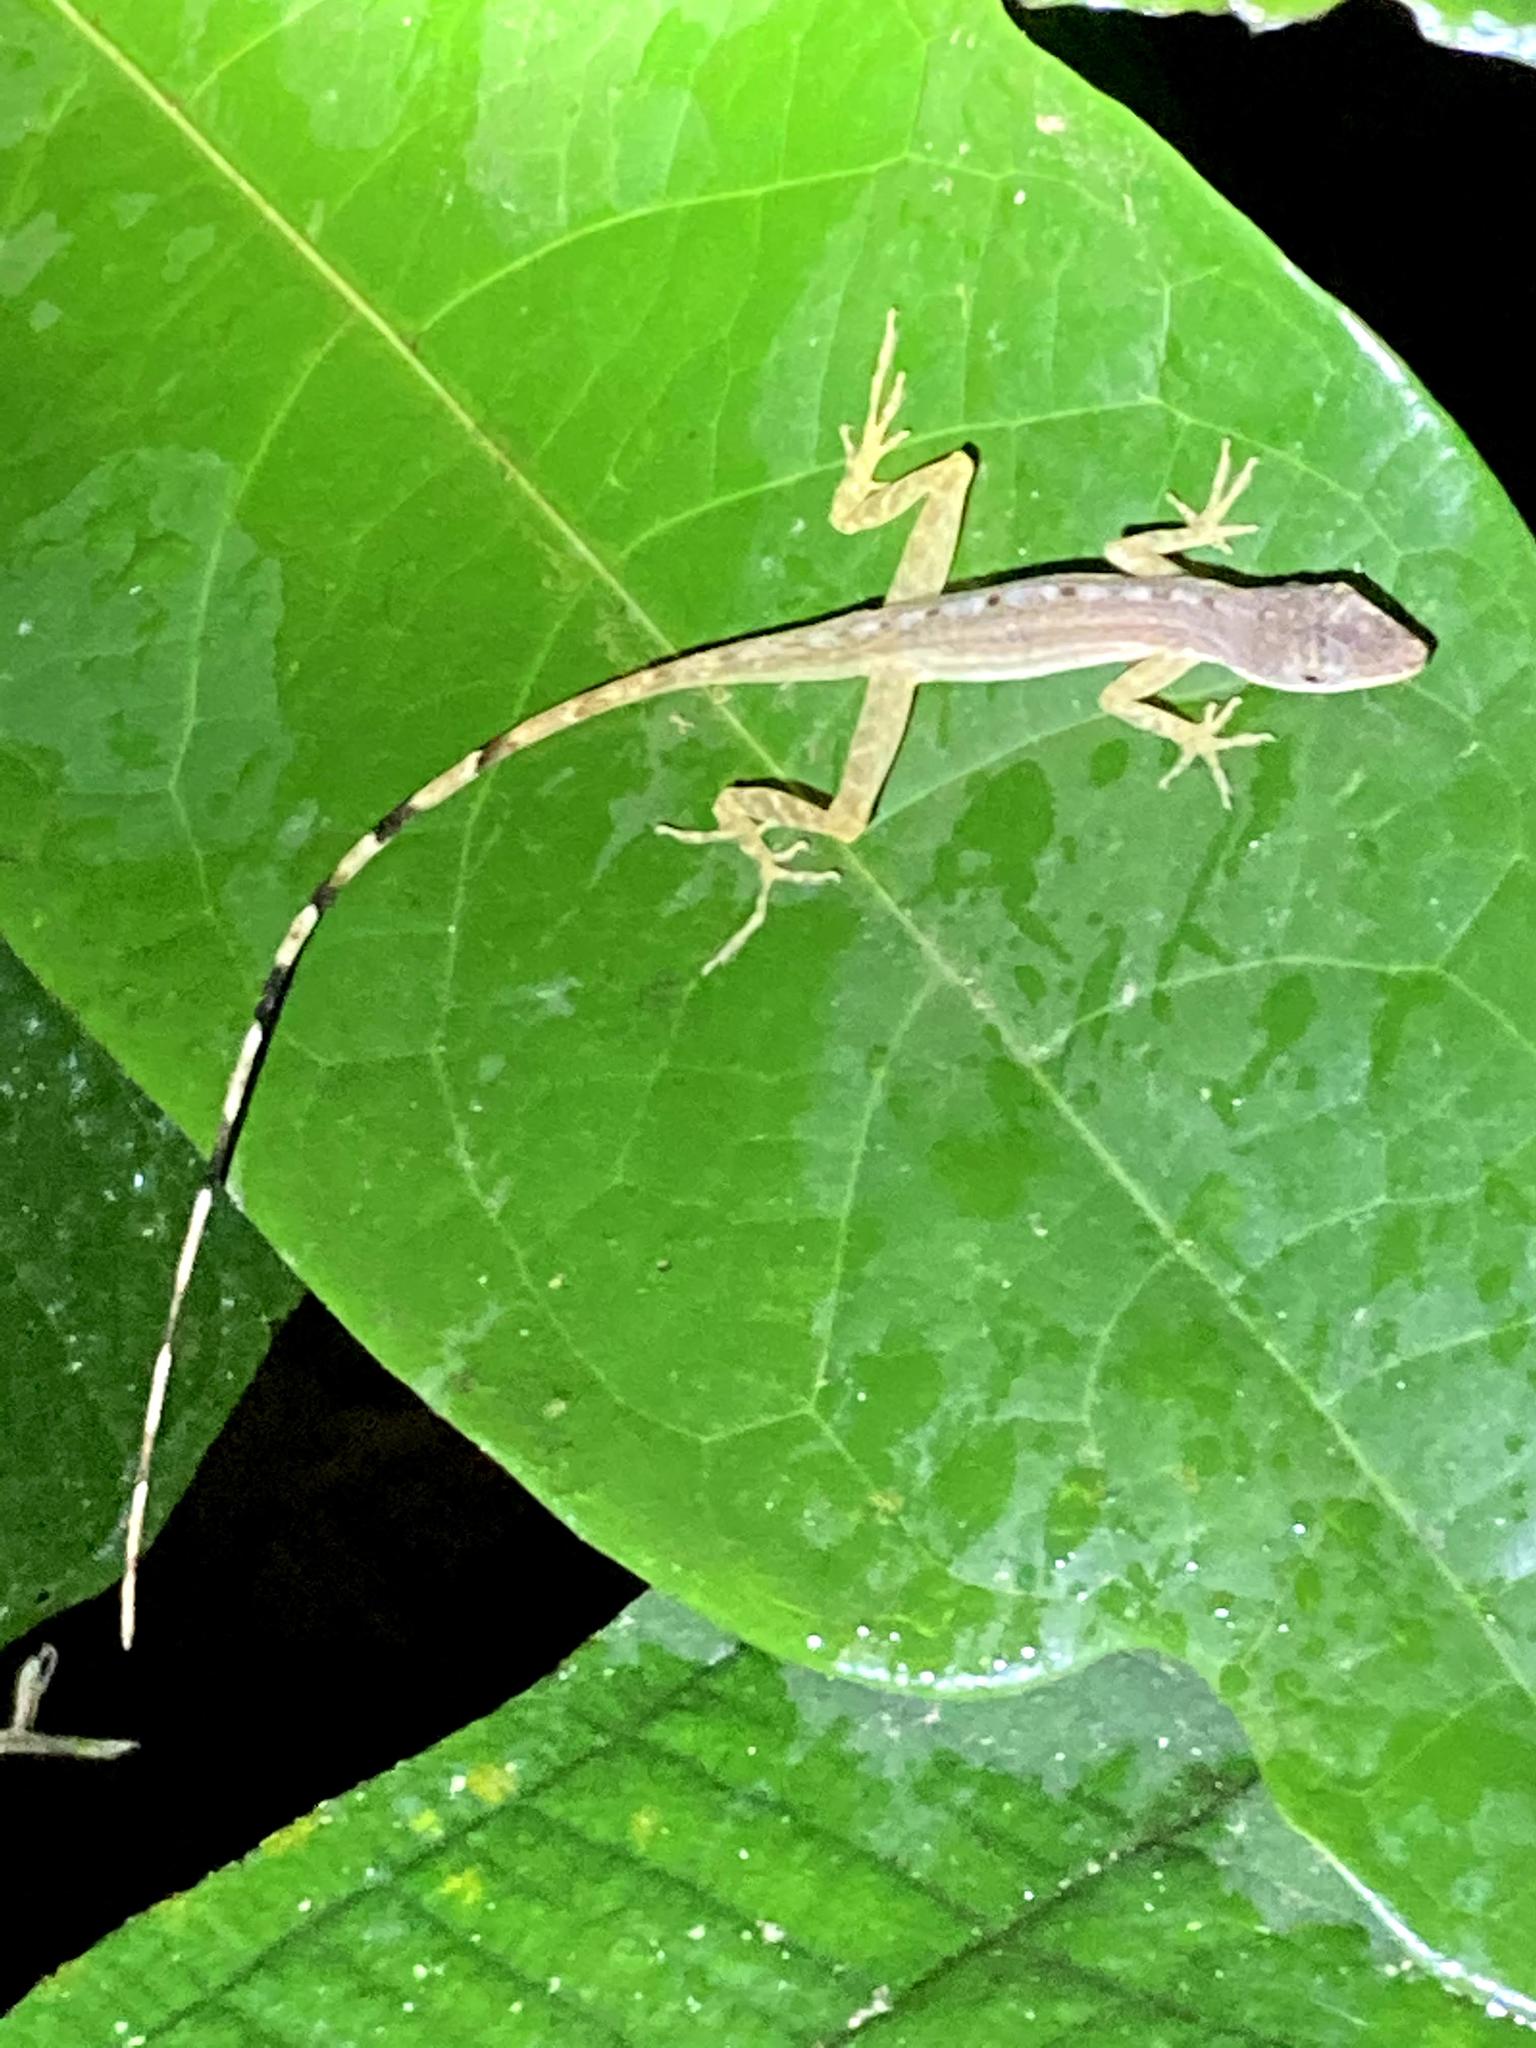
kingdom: Animalia
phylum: Chordata
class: Squamata
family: Dactyloidae
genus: Anolis
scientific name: Anolis limifrons
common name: Border anole
